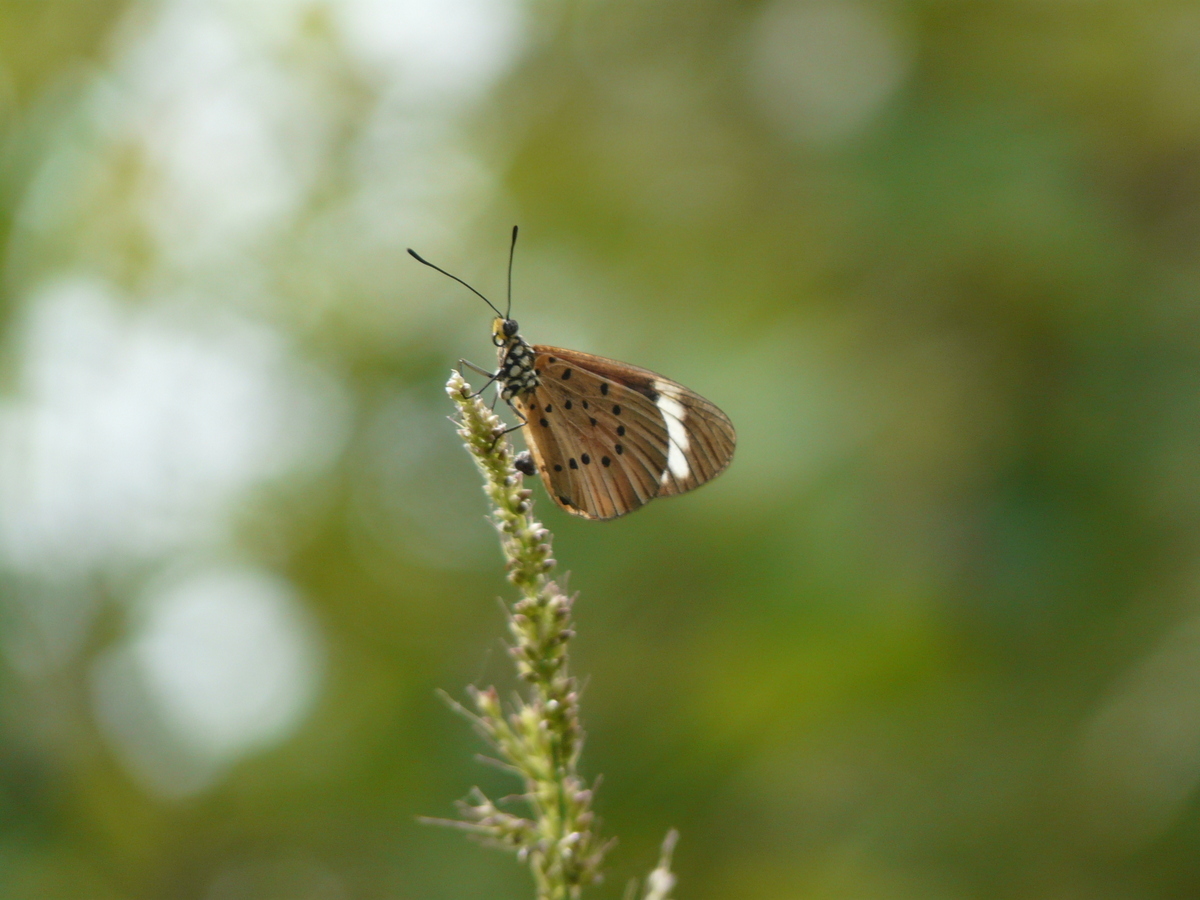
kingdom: Animalia
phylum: Arthropoda
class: Insecta
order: Lepidoptera
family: Nymphalidae
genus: Acraea
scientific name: Acraea Telchinia encedon
